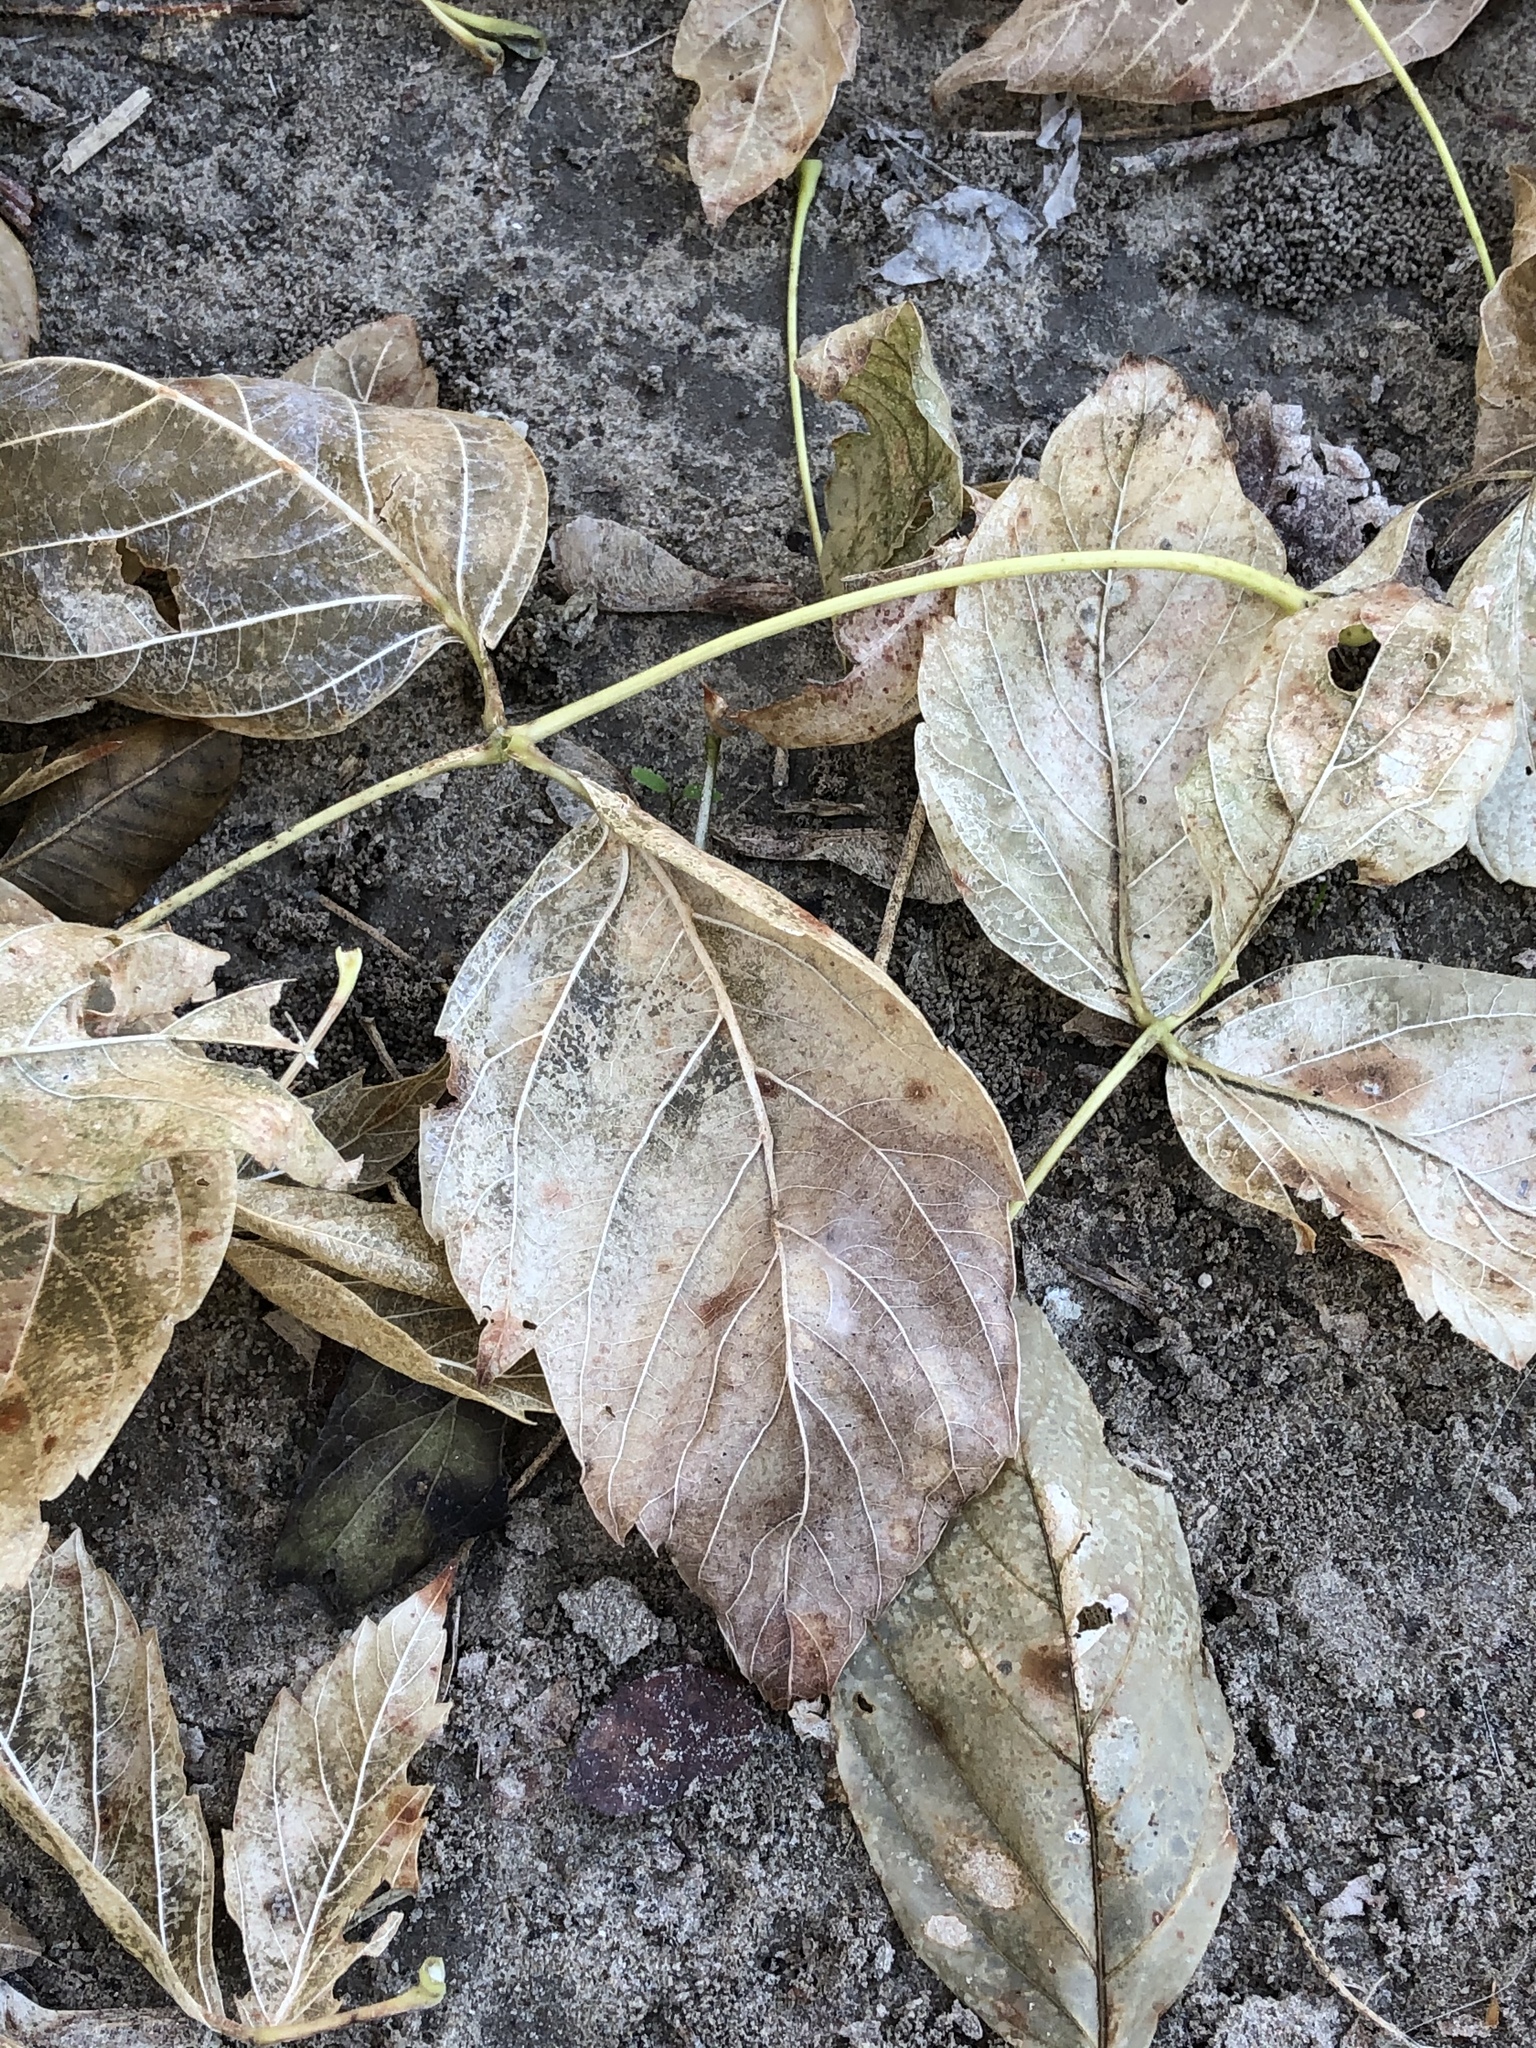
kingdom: Plantae
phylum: Tracheophyta
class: Magnoliopsida
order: Sapindales
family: Sapindaceae
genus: Acer
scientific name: Acer negundo
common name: Ashleaf maple
